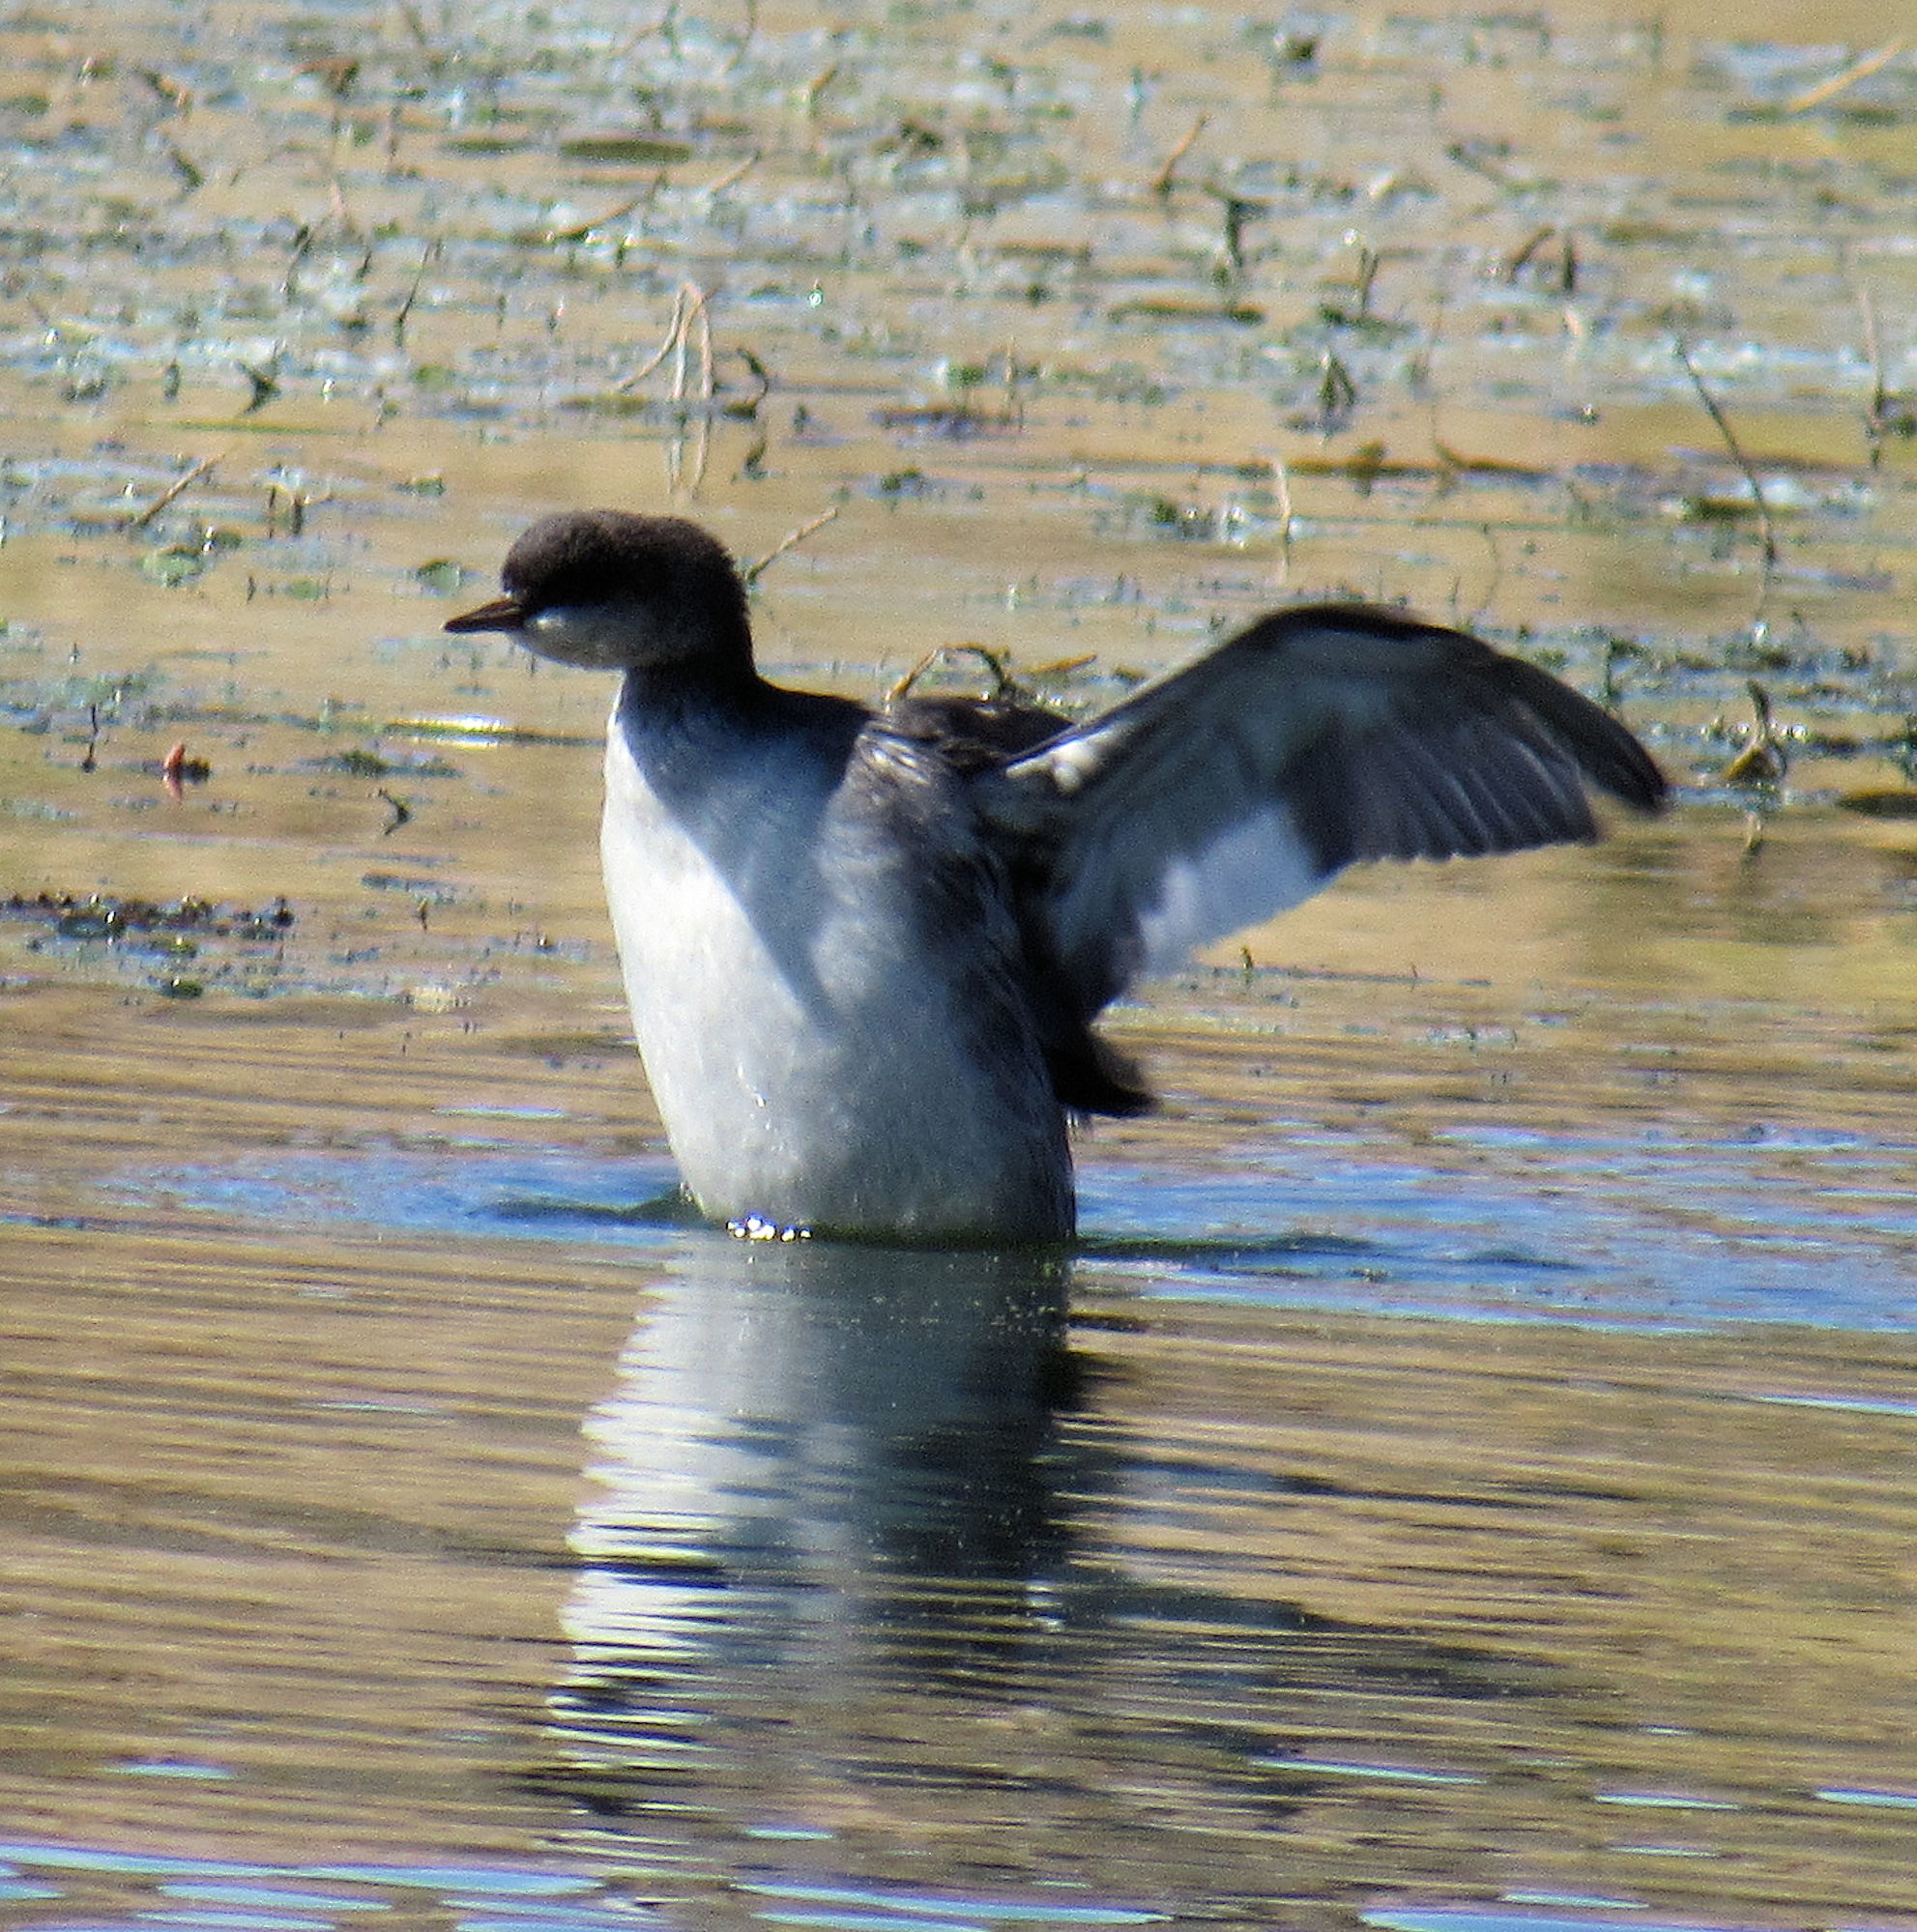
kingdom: Animalia
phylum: Chordata
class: Aves
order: Podicipediformes
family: Podicipedidae
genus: Podiceps
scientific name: Podiceps nigricollis
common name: Black-necked grebe
